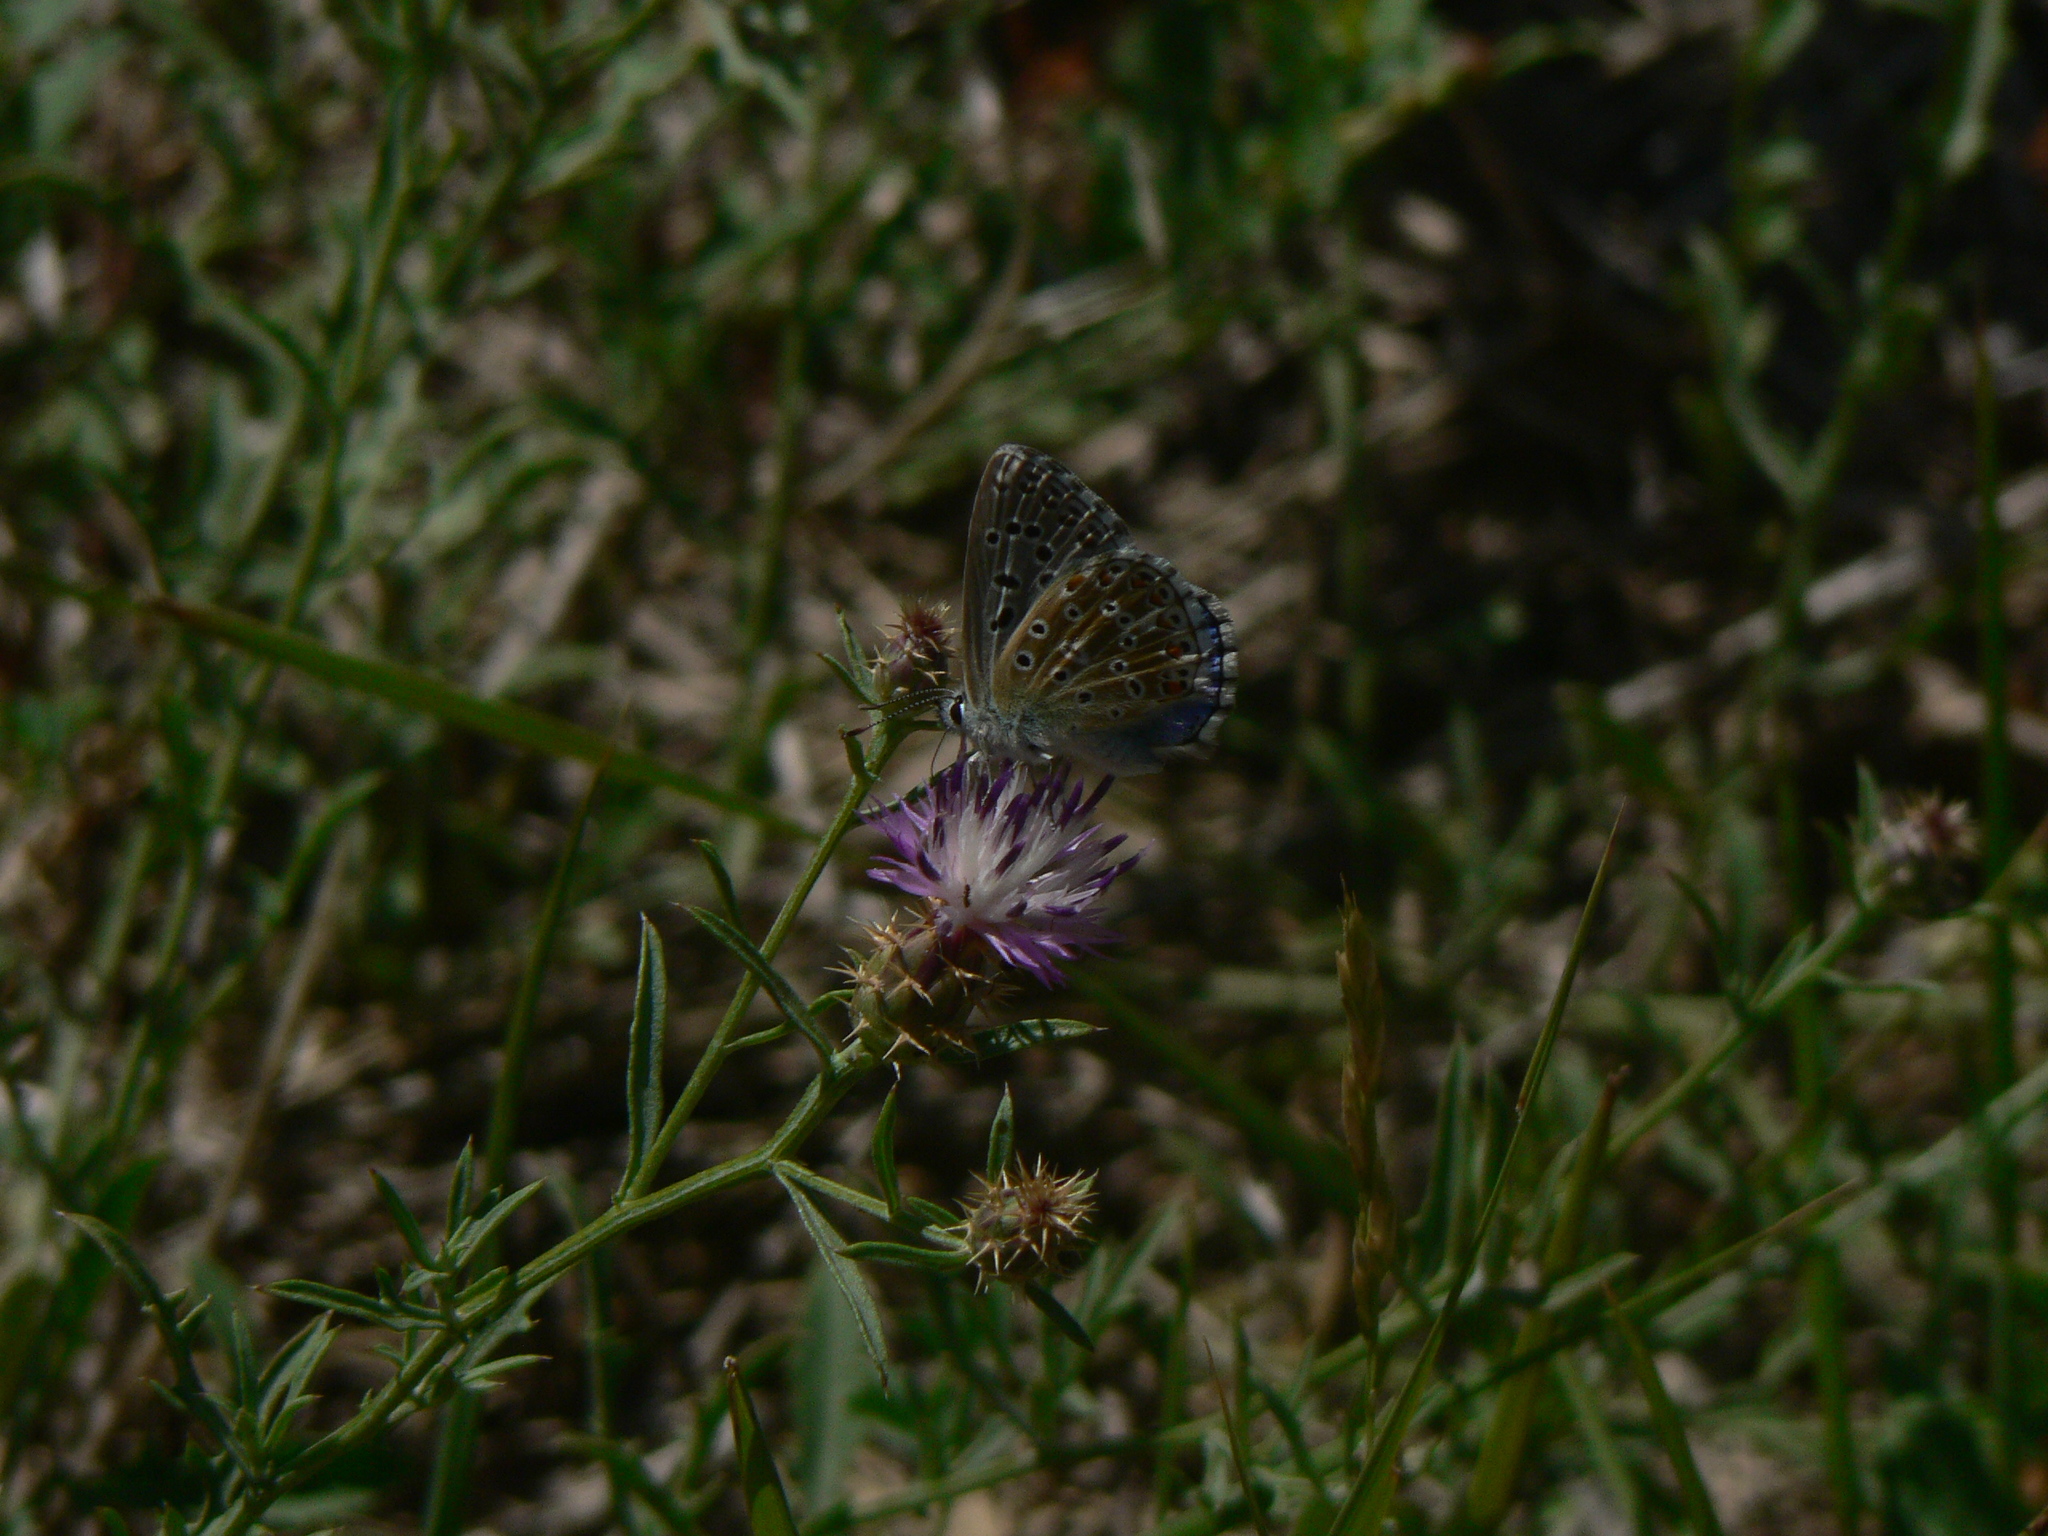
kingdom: Animalia
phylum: Arthropoda
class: Insecta
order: Lepidoptera
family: Lycaenidae
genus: Lysandra
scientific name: Lysandra bellargus
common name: Adonis blue
